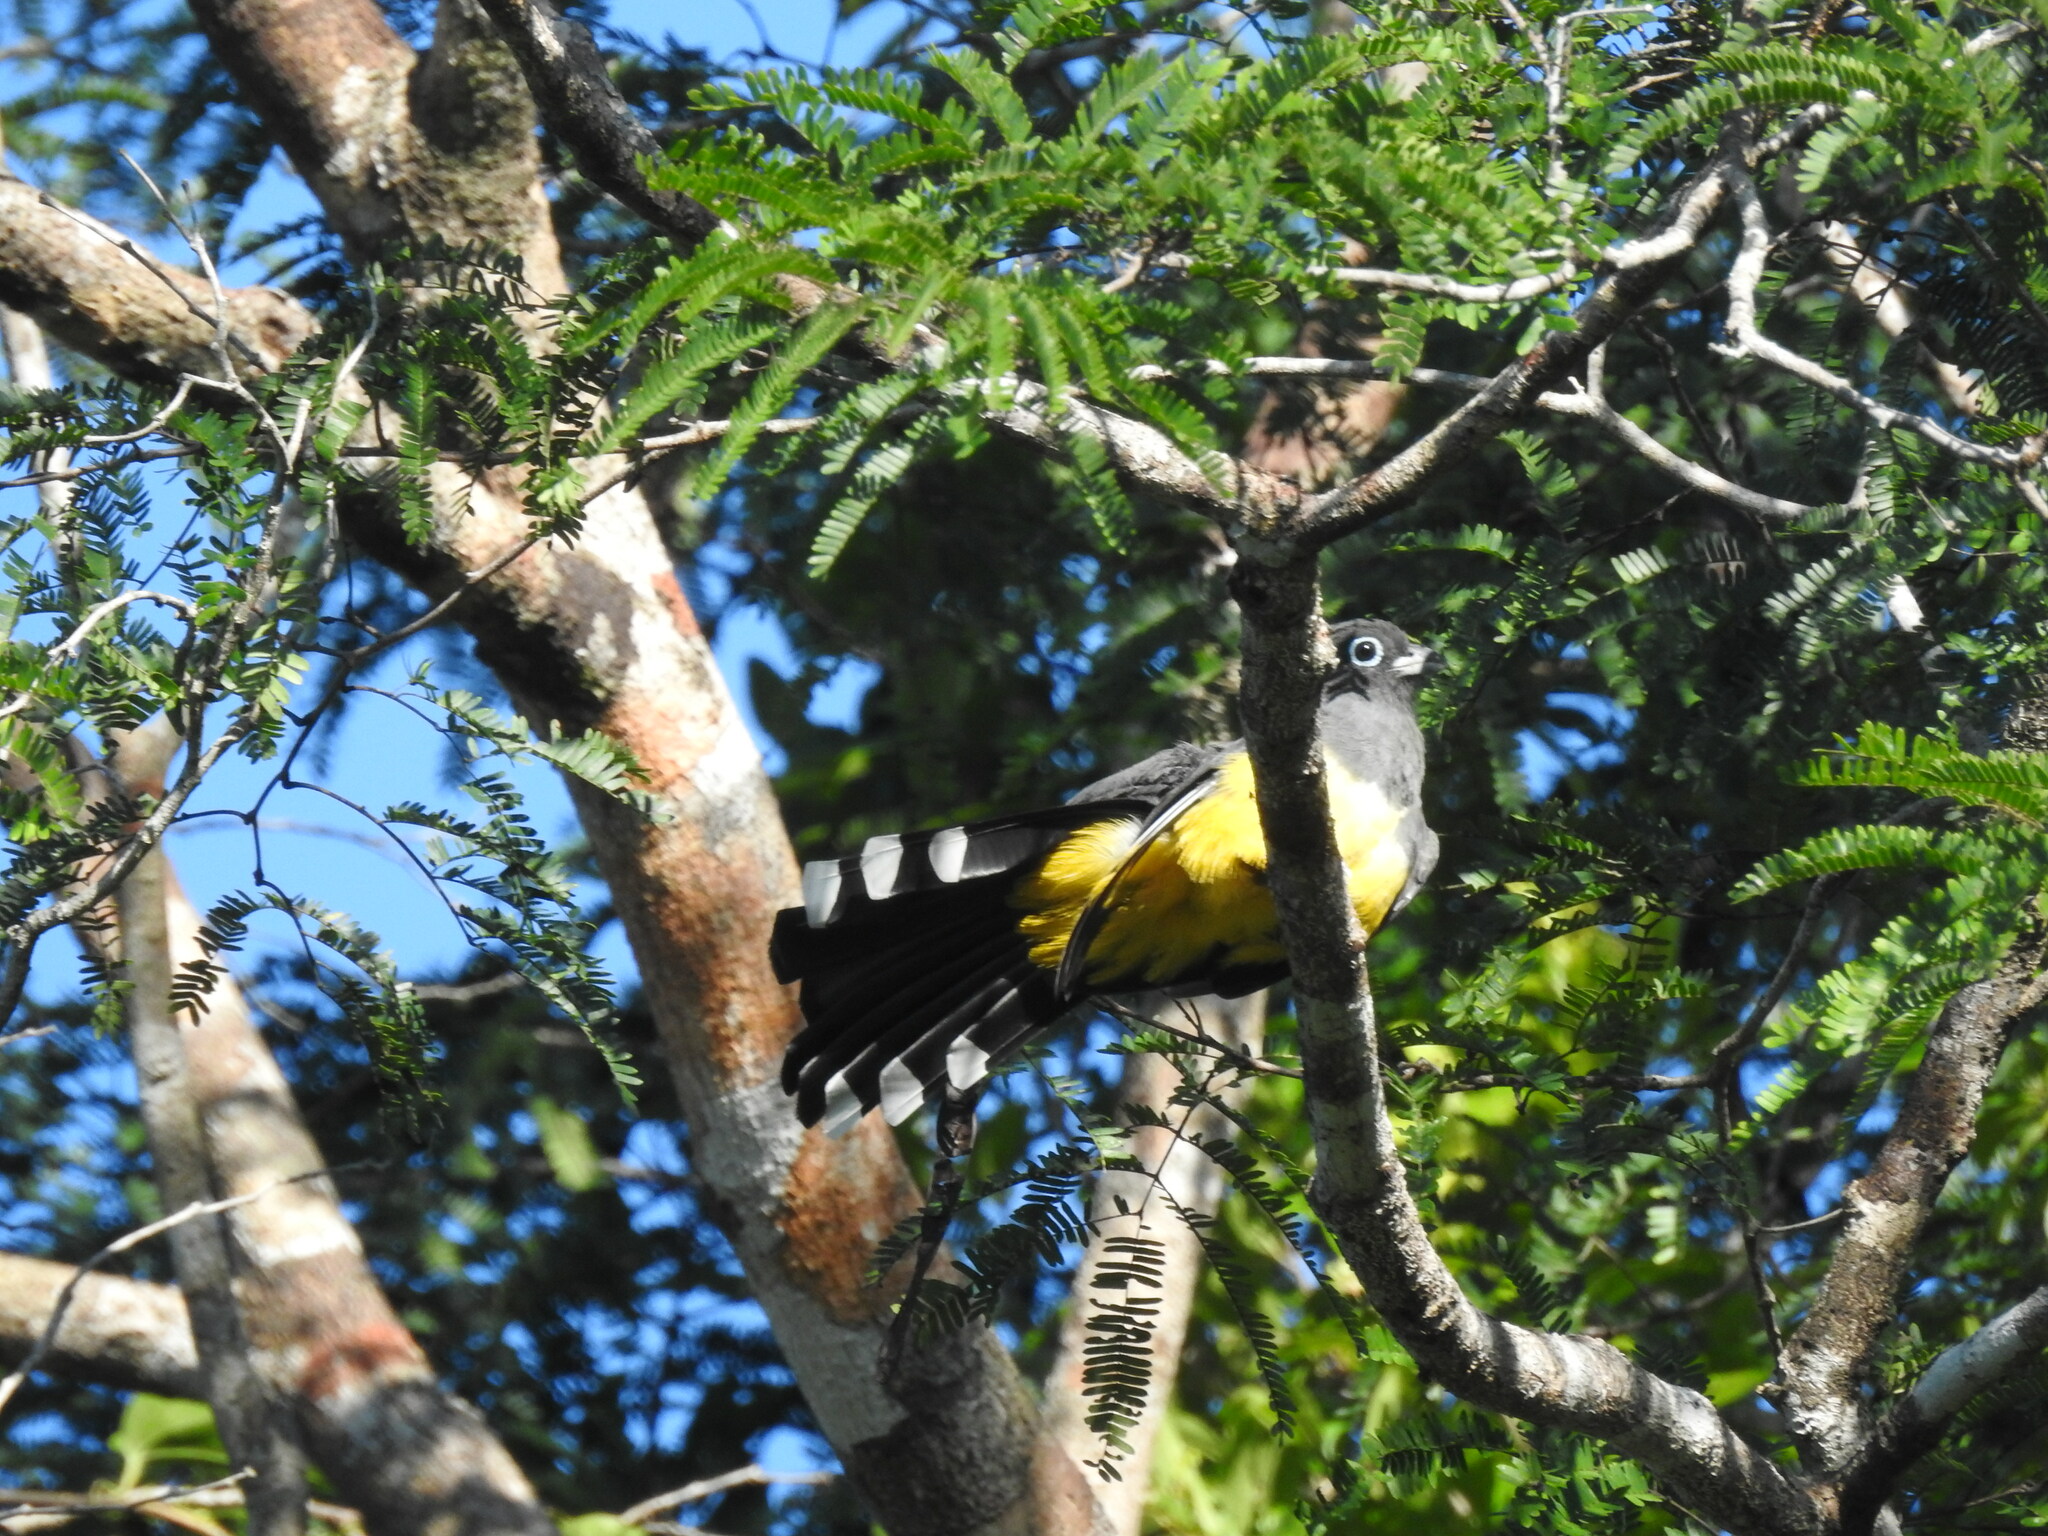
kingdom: Animalia
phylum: Chordata
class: Aves
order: Trogoniformes
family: Trogonidae
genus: Trogon
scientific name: Trogon melanocephalus
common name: Black-headed trogon
